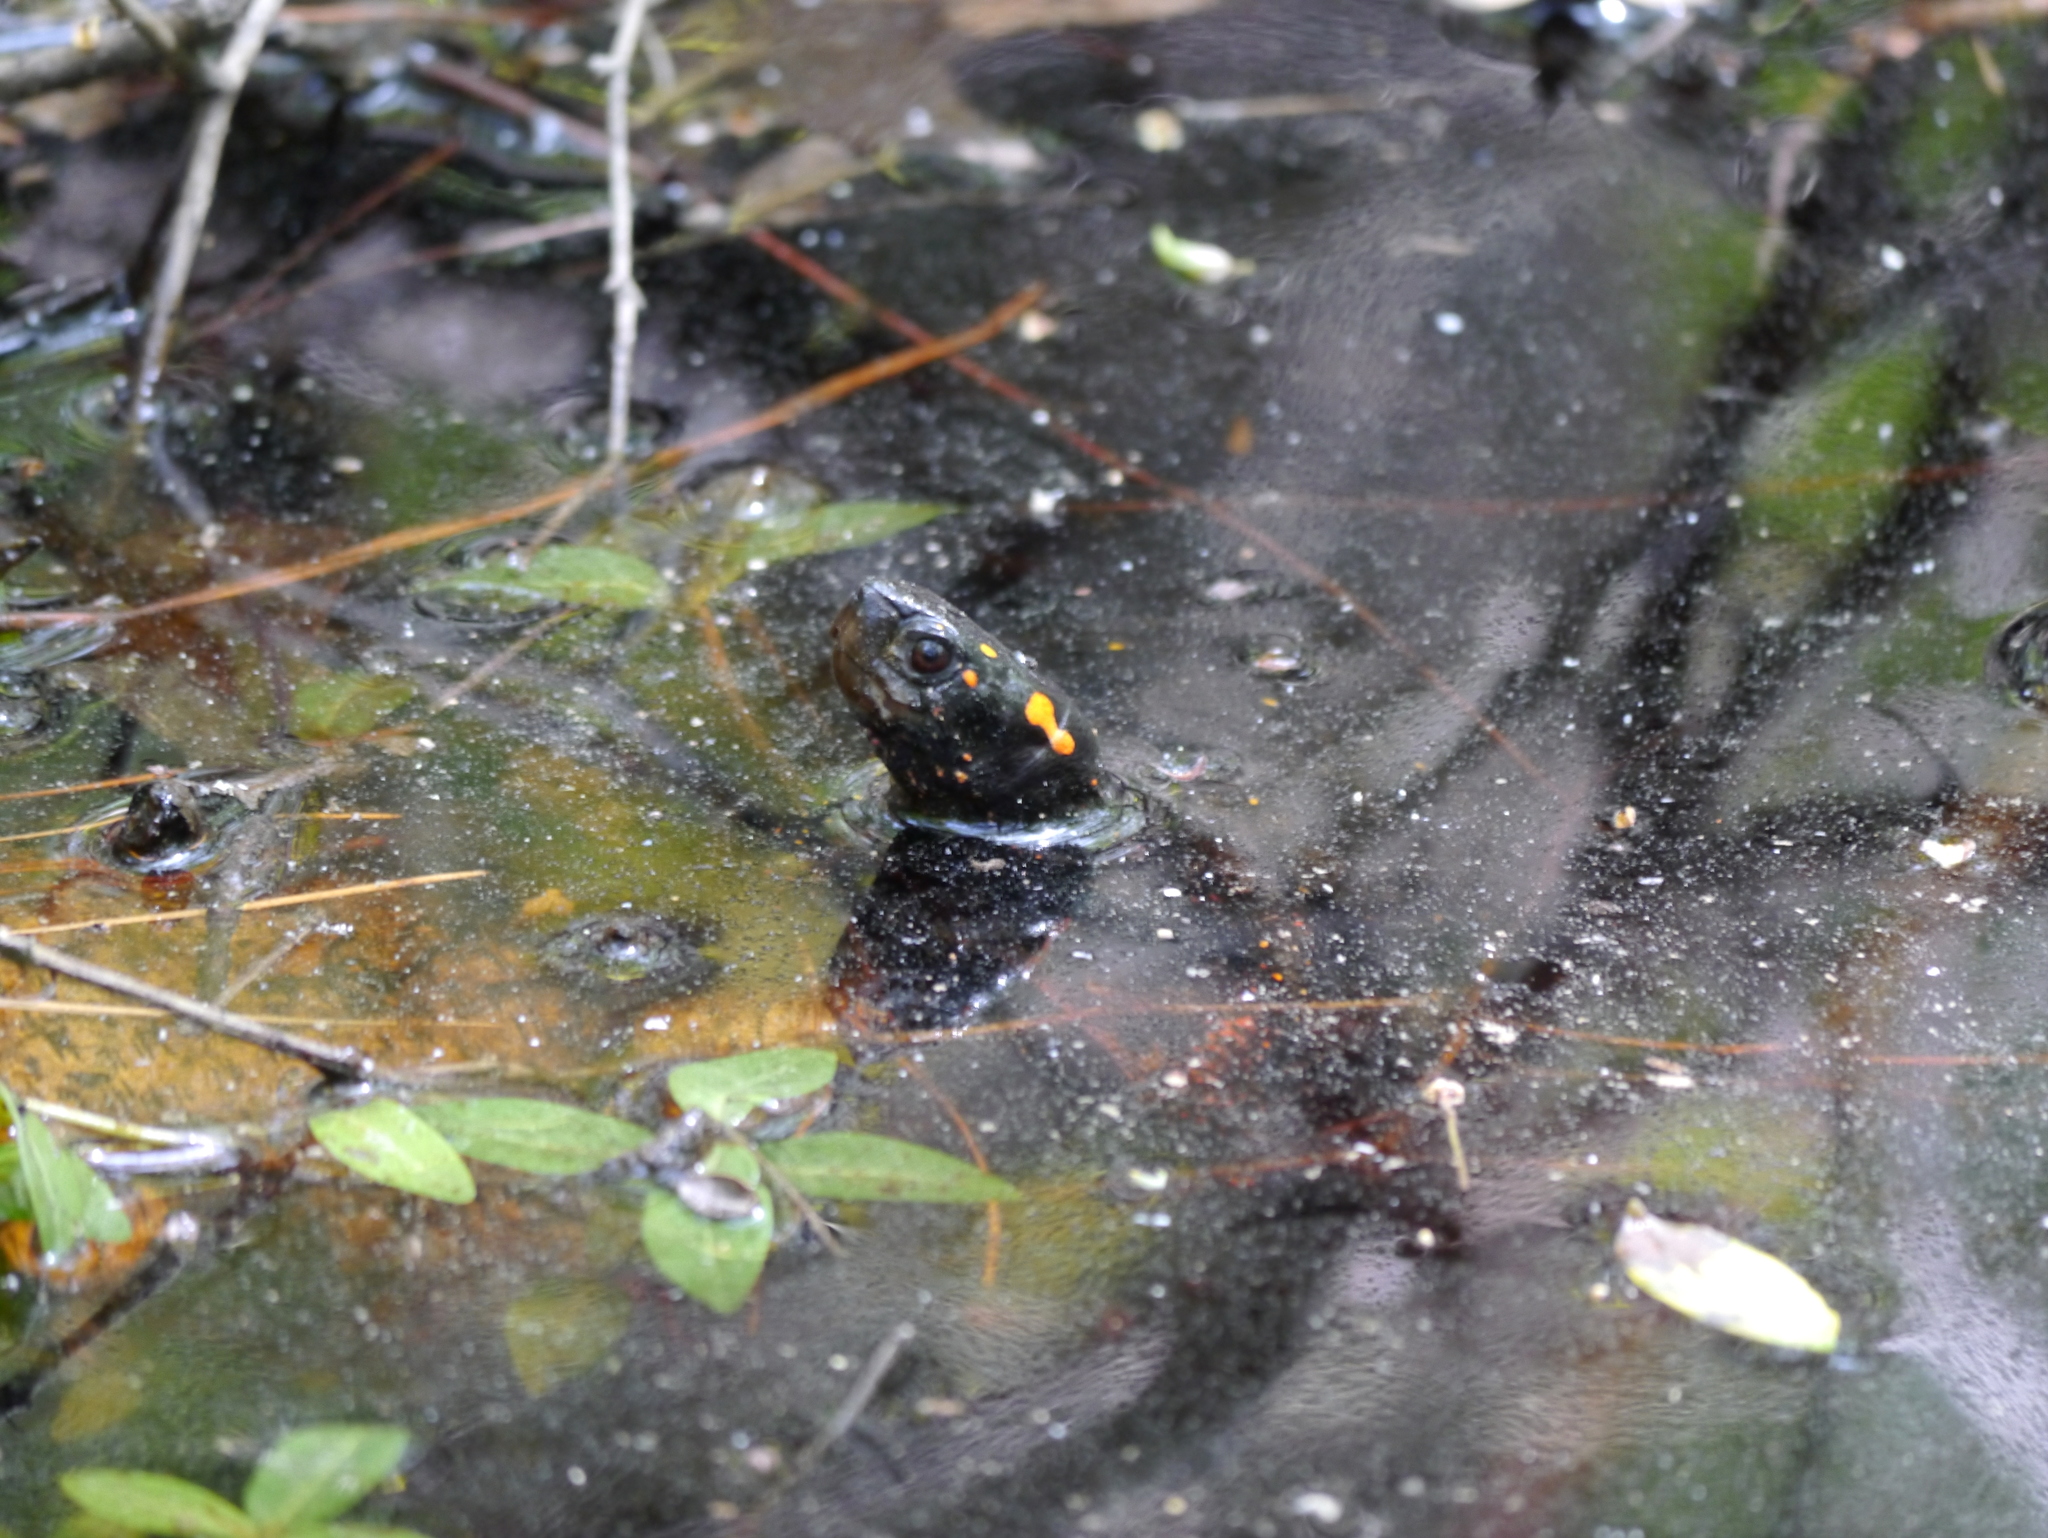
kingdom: Animalia
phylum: Chordata
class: Testudines
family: Emydidae
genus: Clemmys
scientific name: Clemmys guttata
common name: Spotted turtle
